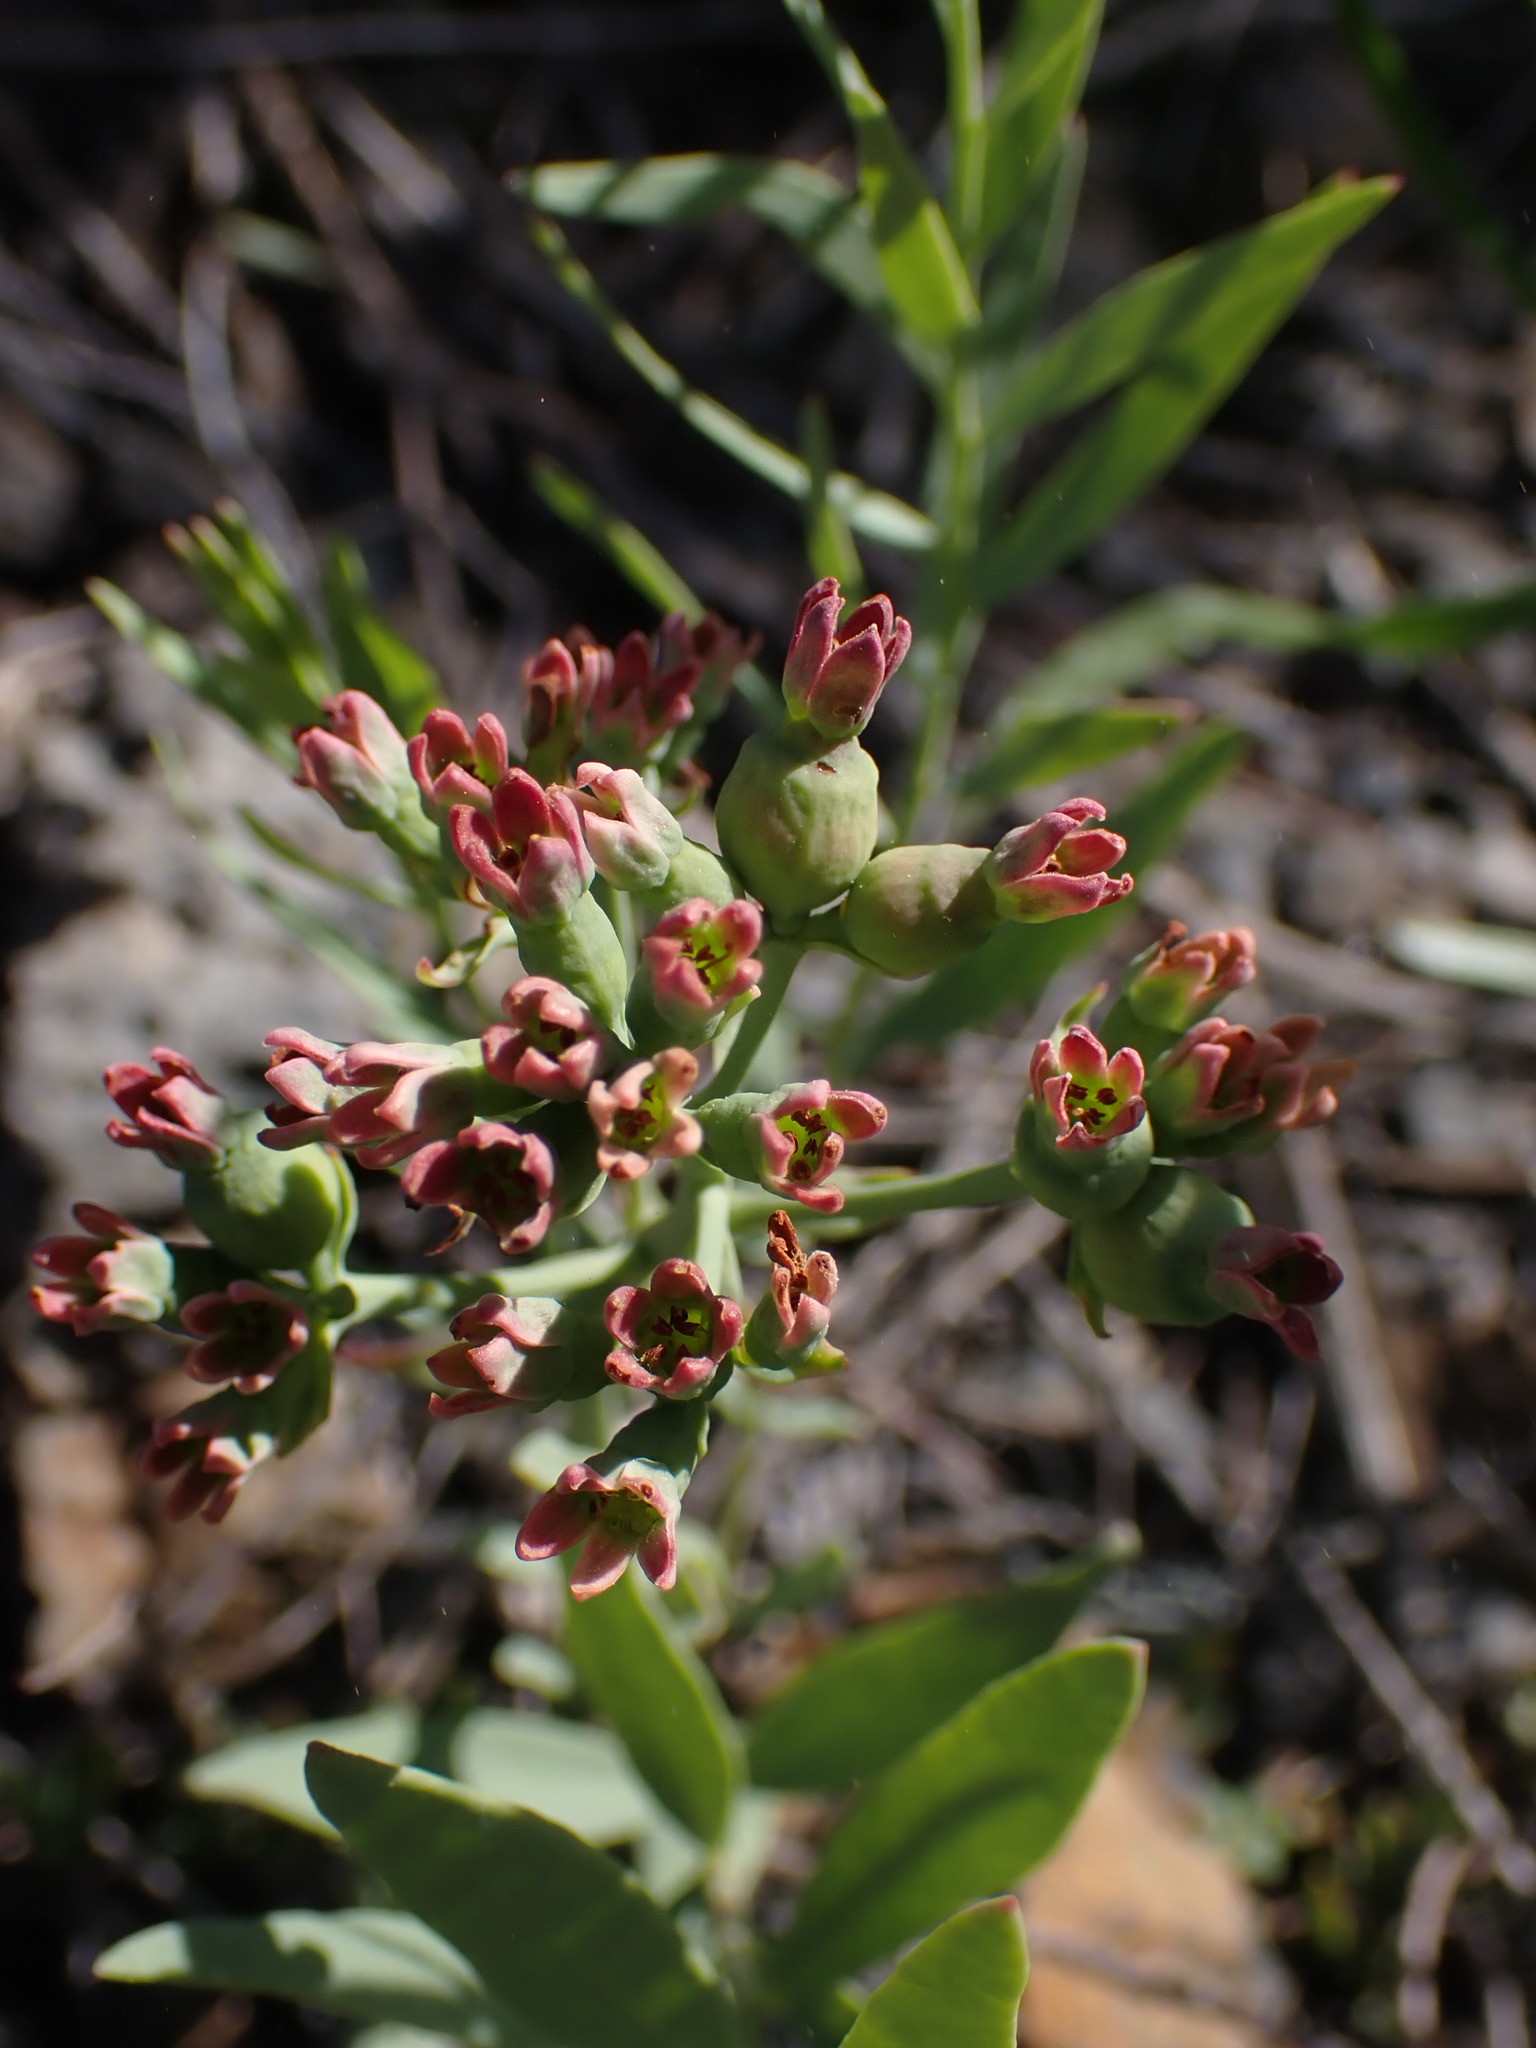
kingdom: Plantae
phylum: Tracheophyta
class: Magnoliopsida
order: Santalales
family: Comandraceae
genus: Comandra
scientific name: Comandra umbellata
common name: Bastard toadflax
